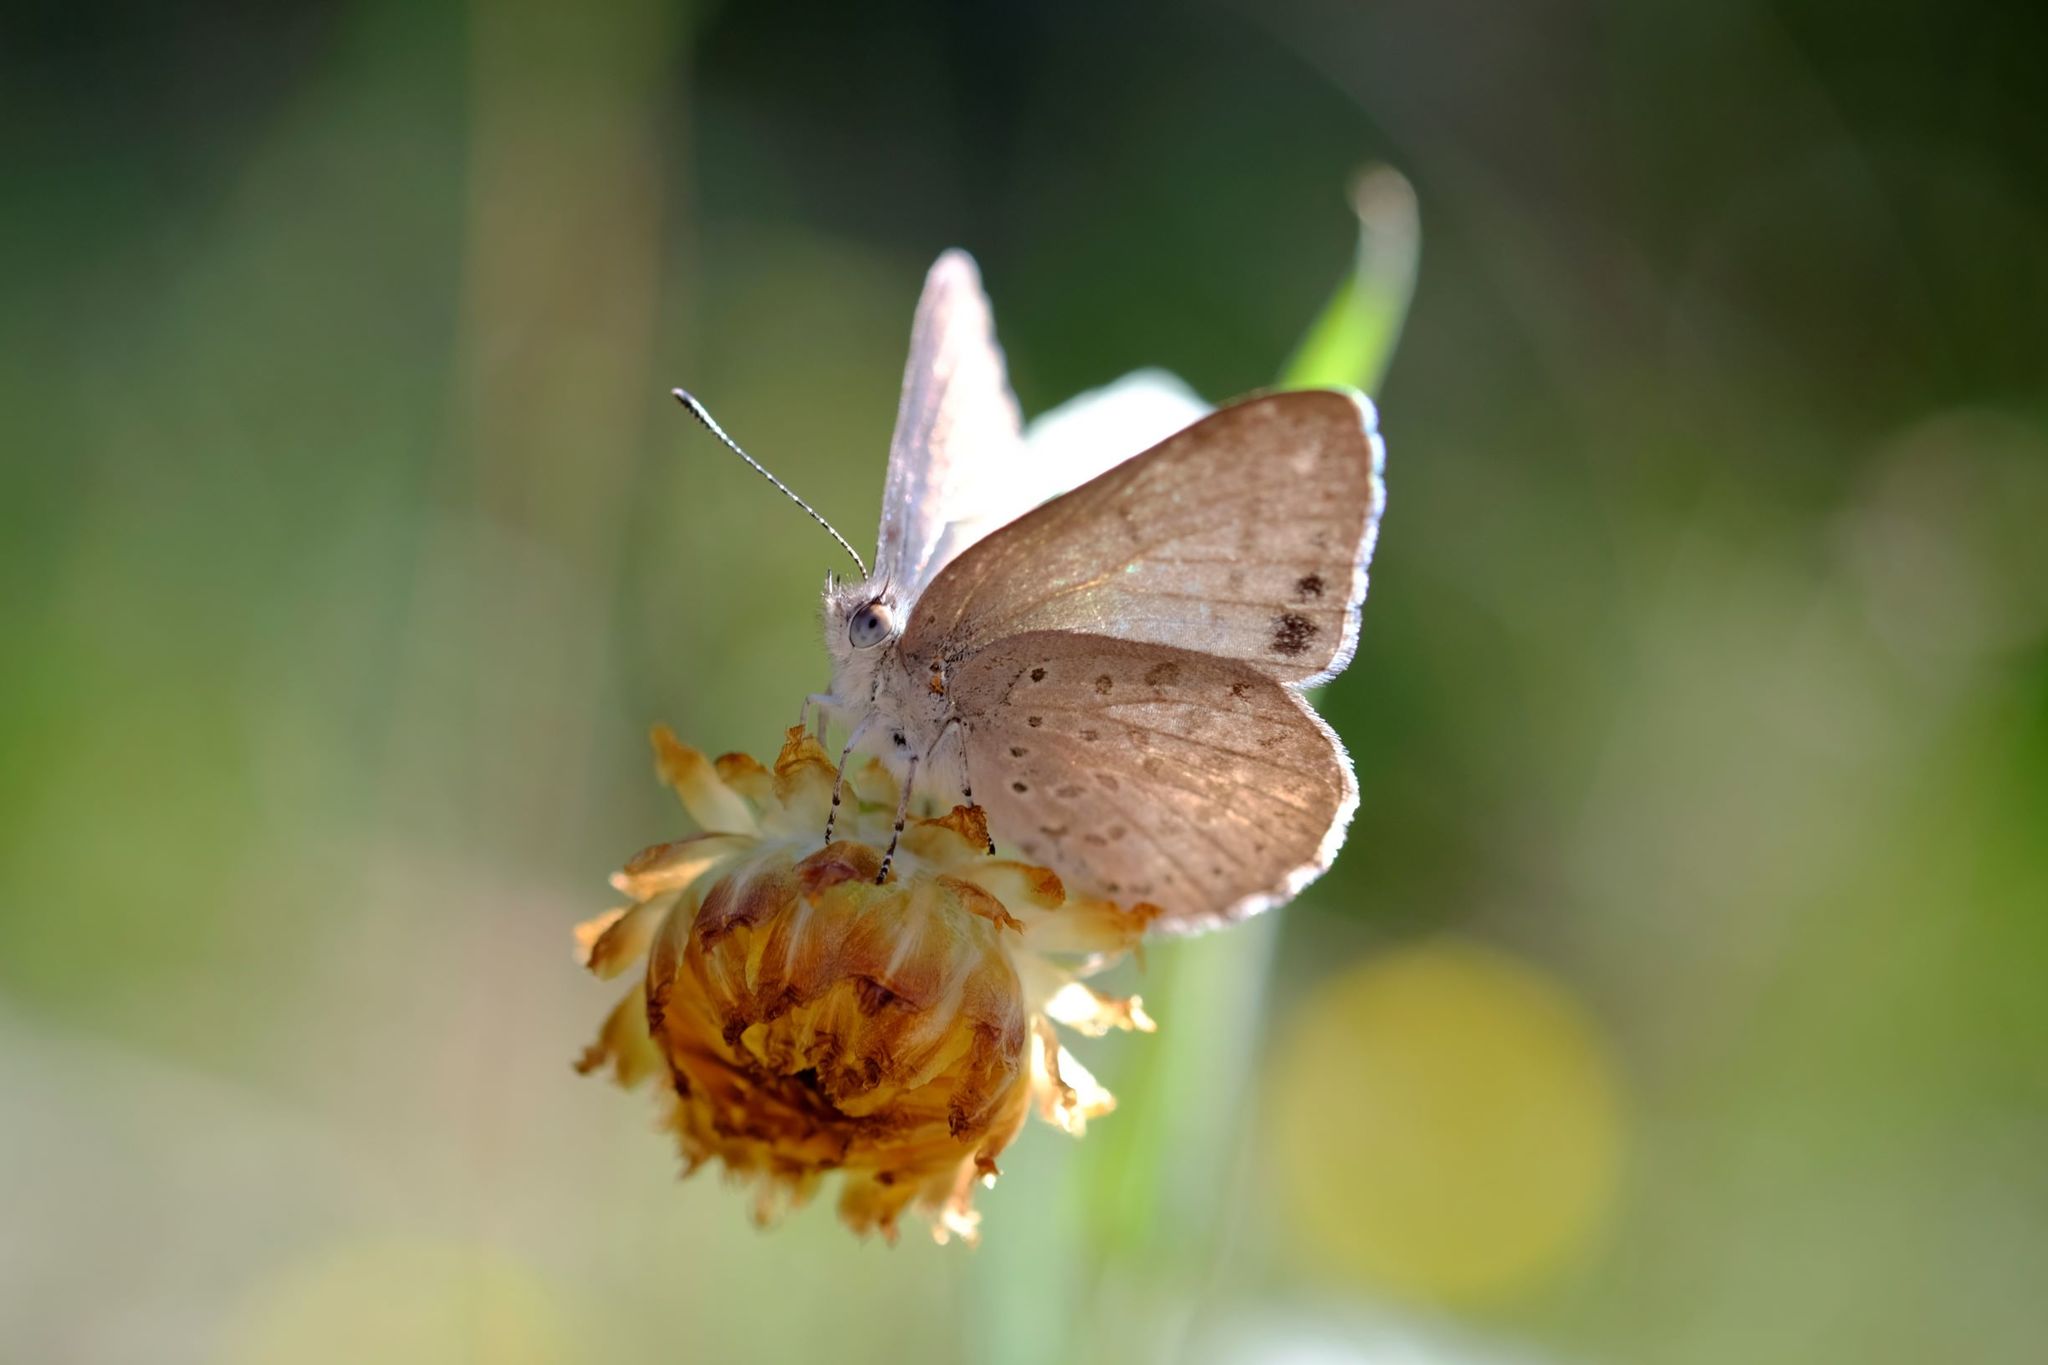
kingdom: Animalia
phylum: Arthropoda
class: Insecta
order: Lepidoptera
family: Lycaenidae
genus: Candalides
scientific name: Candalides
